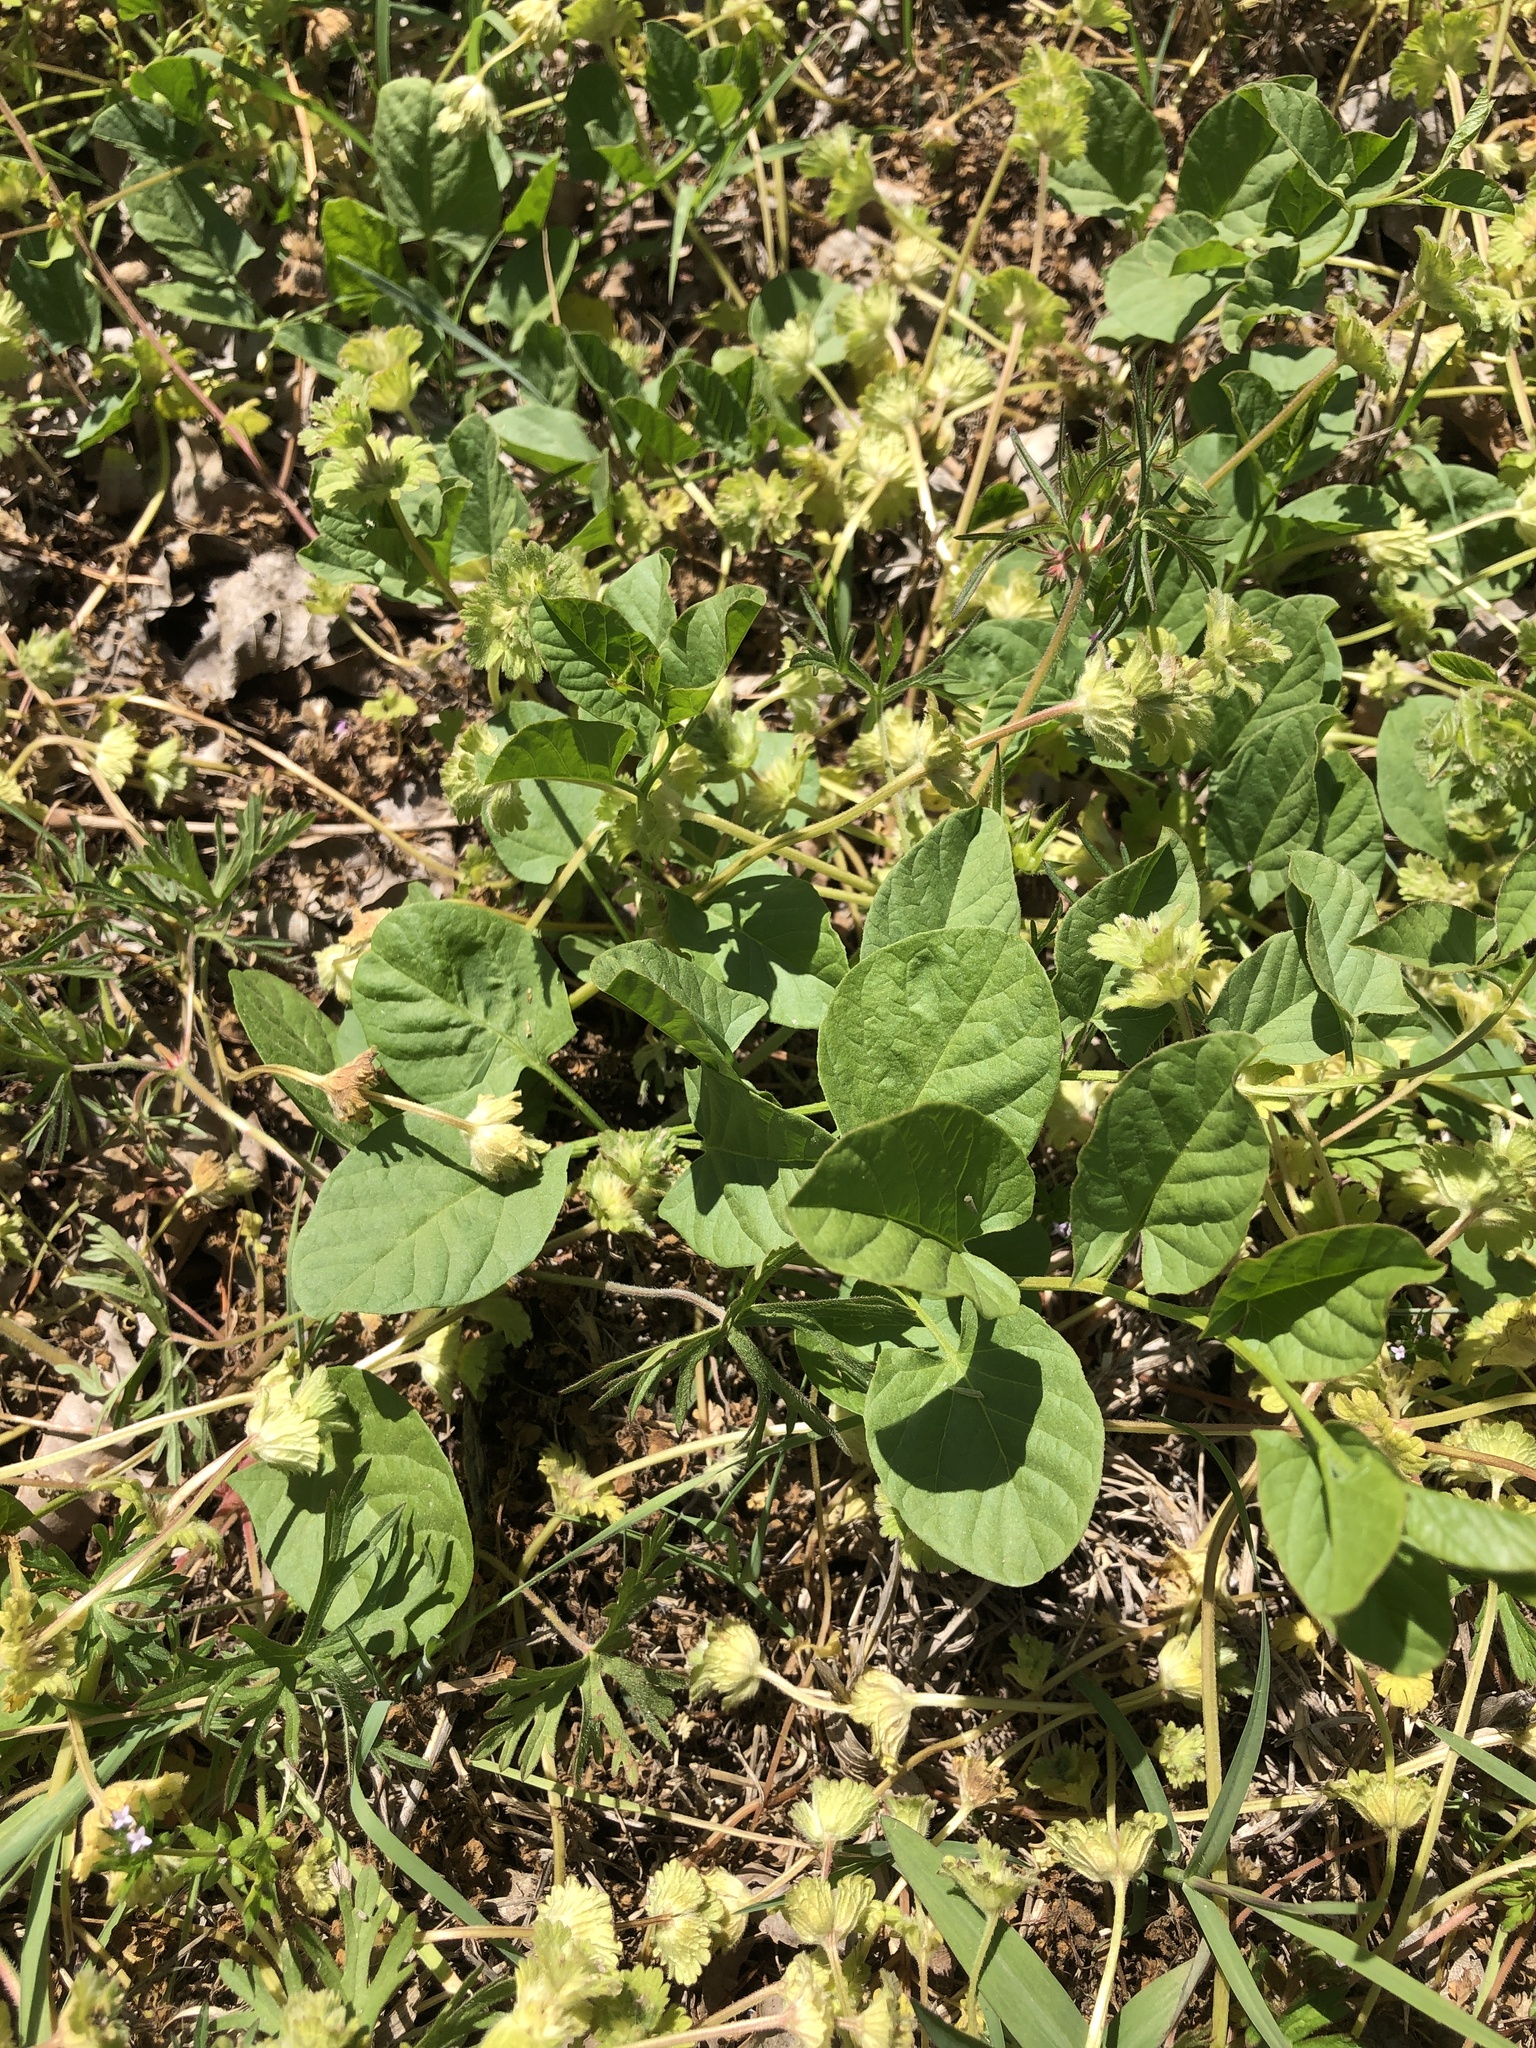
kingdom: Plantae
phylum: Tracheophyta
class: Magnoliopsida
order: Solanales
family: Convolvulaceae
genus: Convolvulus
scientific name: Convolvulus arvensis
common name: Field bindweed
